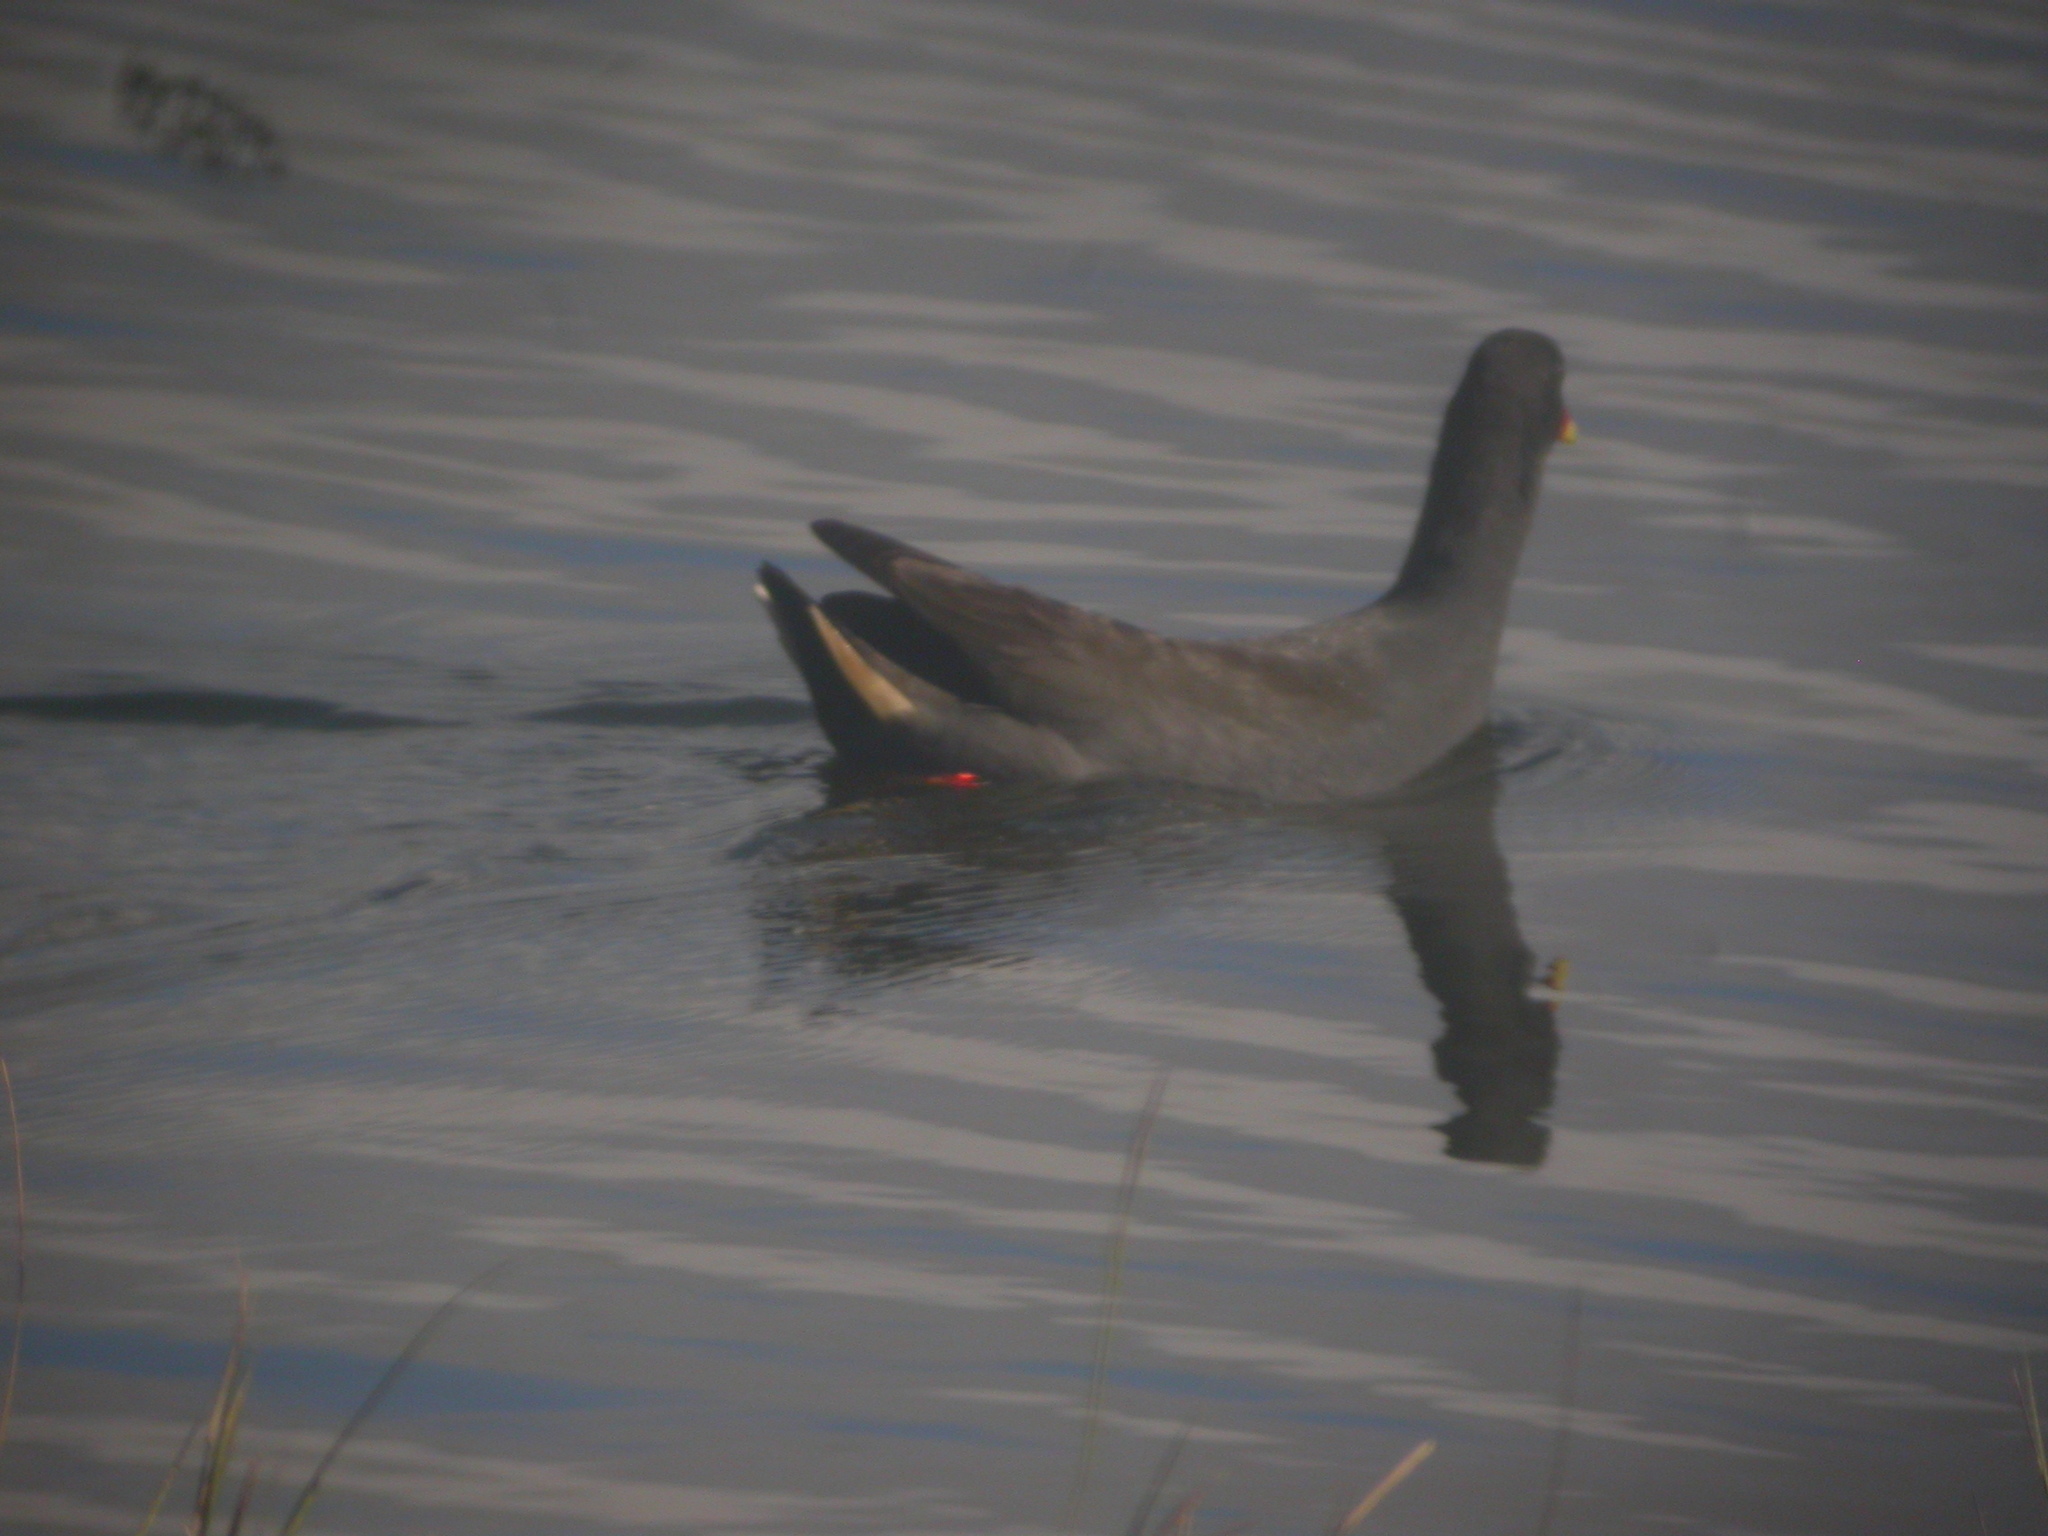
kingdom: Animalia
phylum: Chordata
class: Aves
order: Gruiformes
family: Rallidae
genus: Gallinula
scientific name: Gallinula tenebrosa
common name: Dusky moorhen
